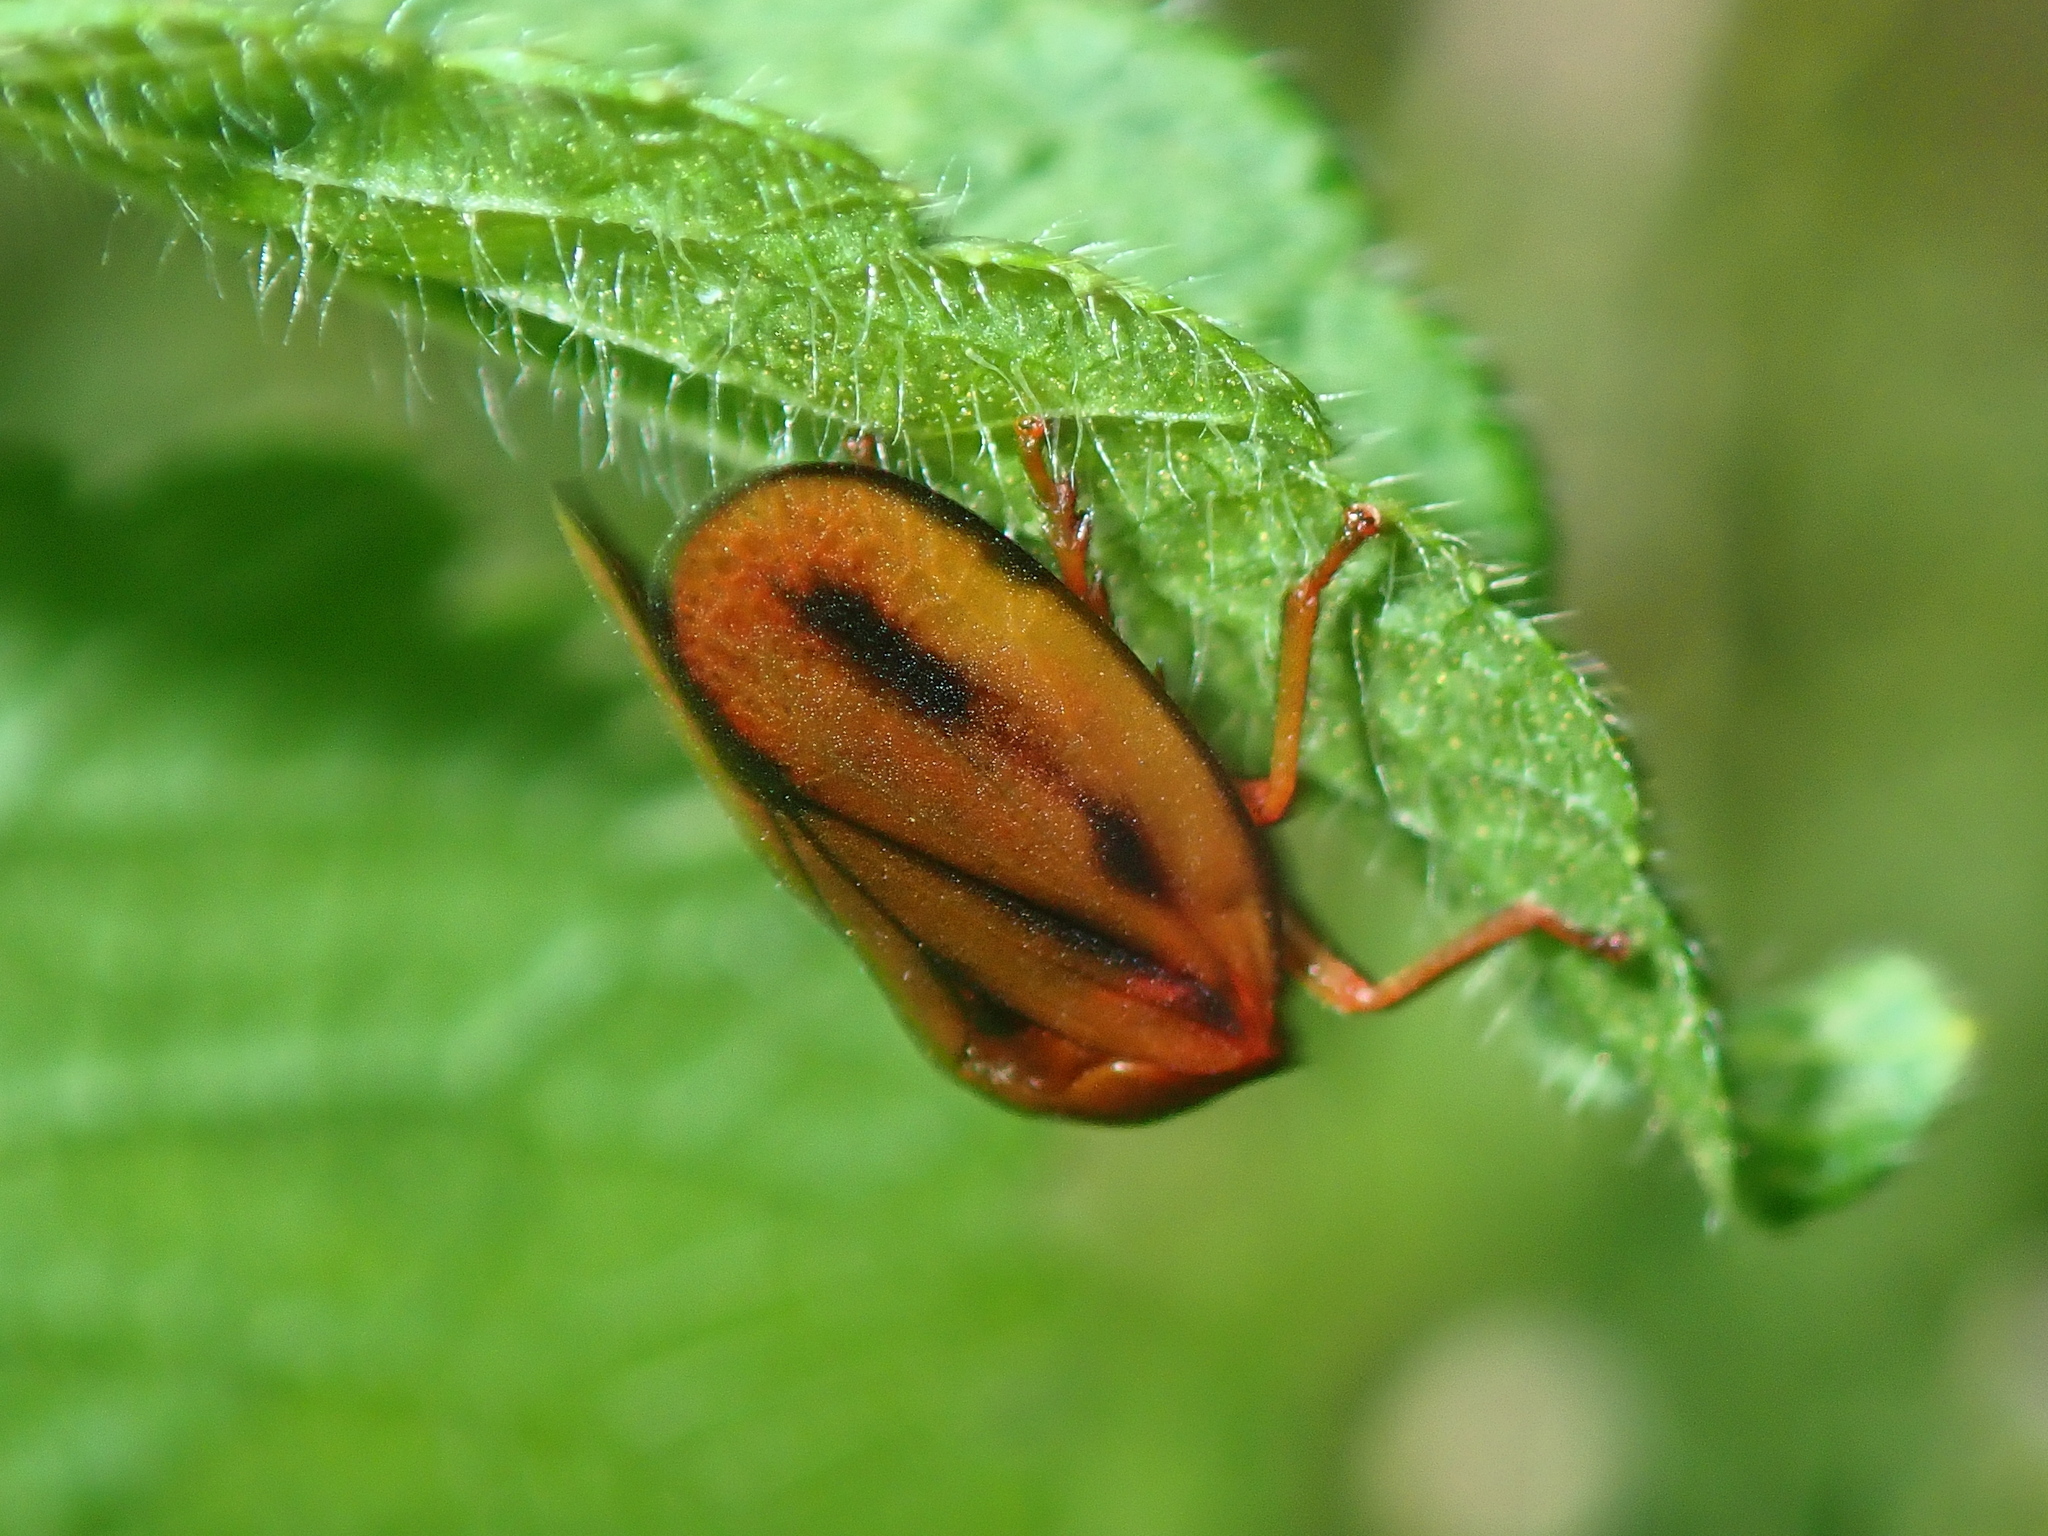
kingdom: Animalia
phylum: Arthropoda
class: Insecta
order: Hemiptera
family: Cercopidae
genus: Mahanarva
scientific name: Mahanarva paraguayana
